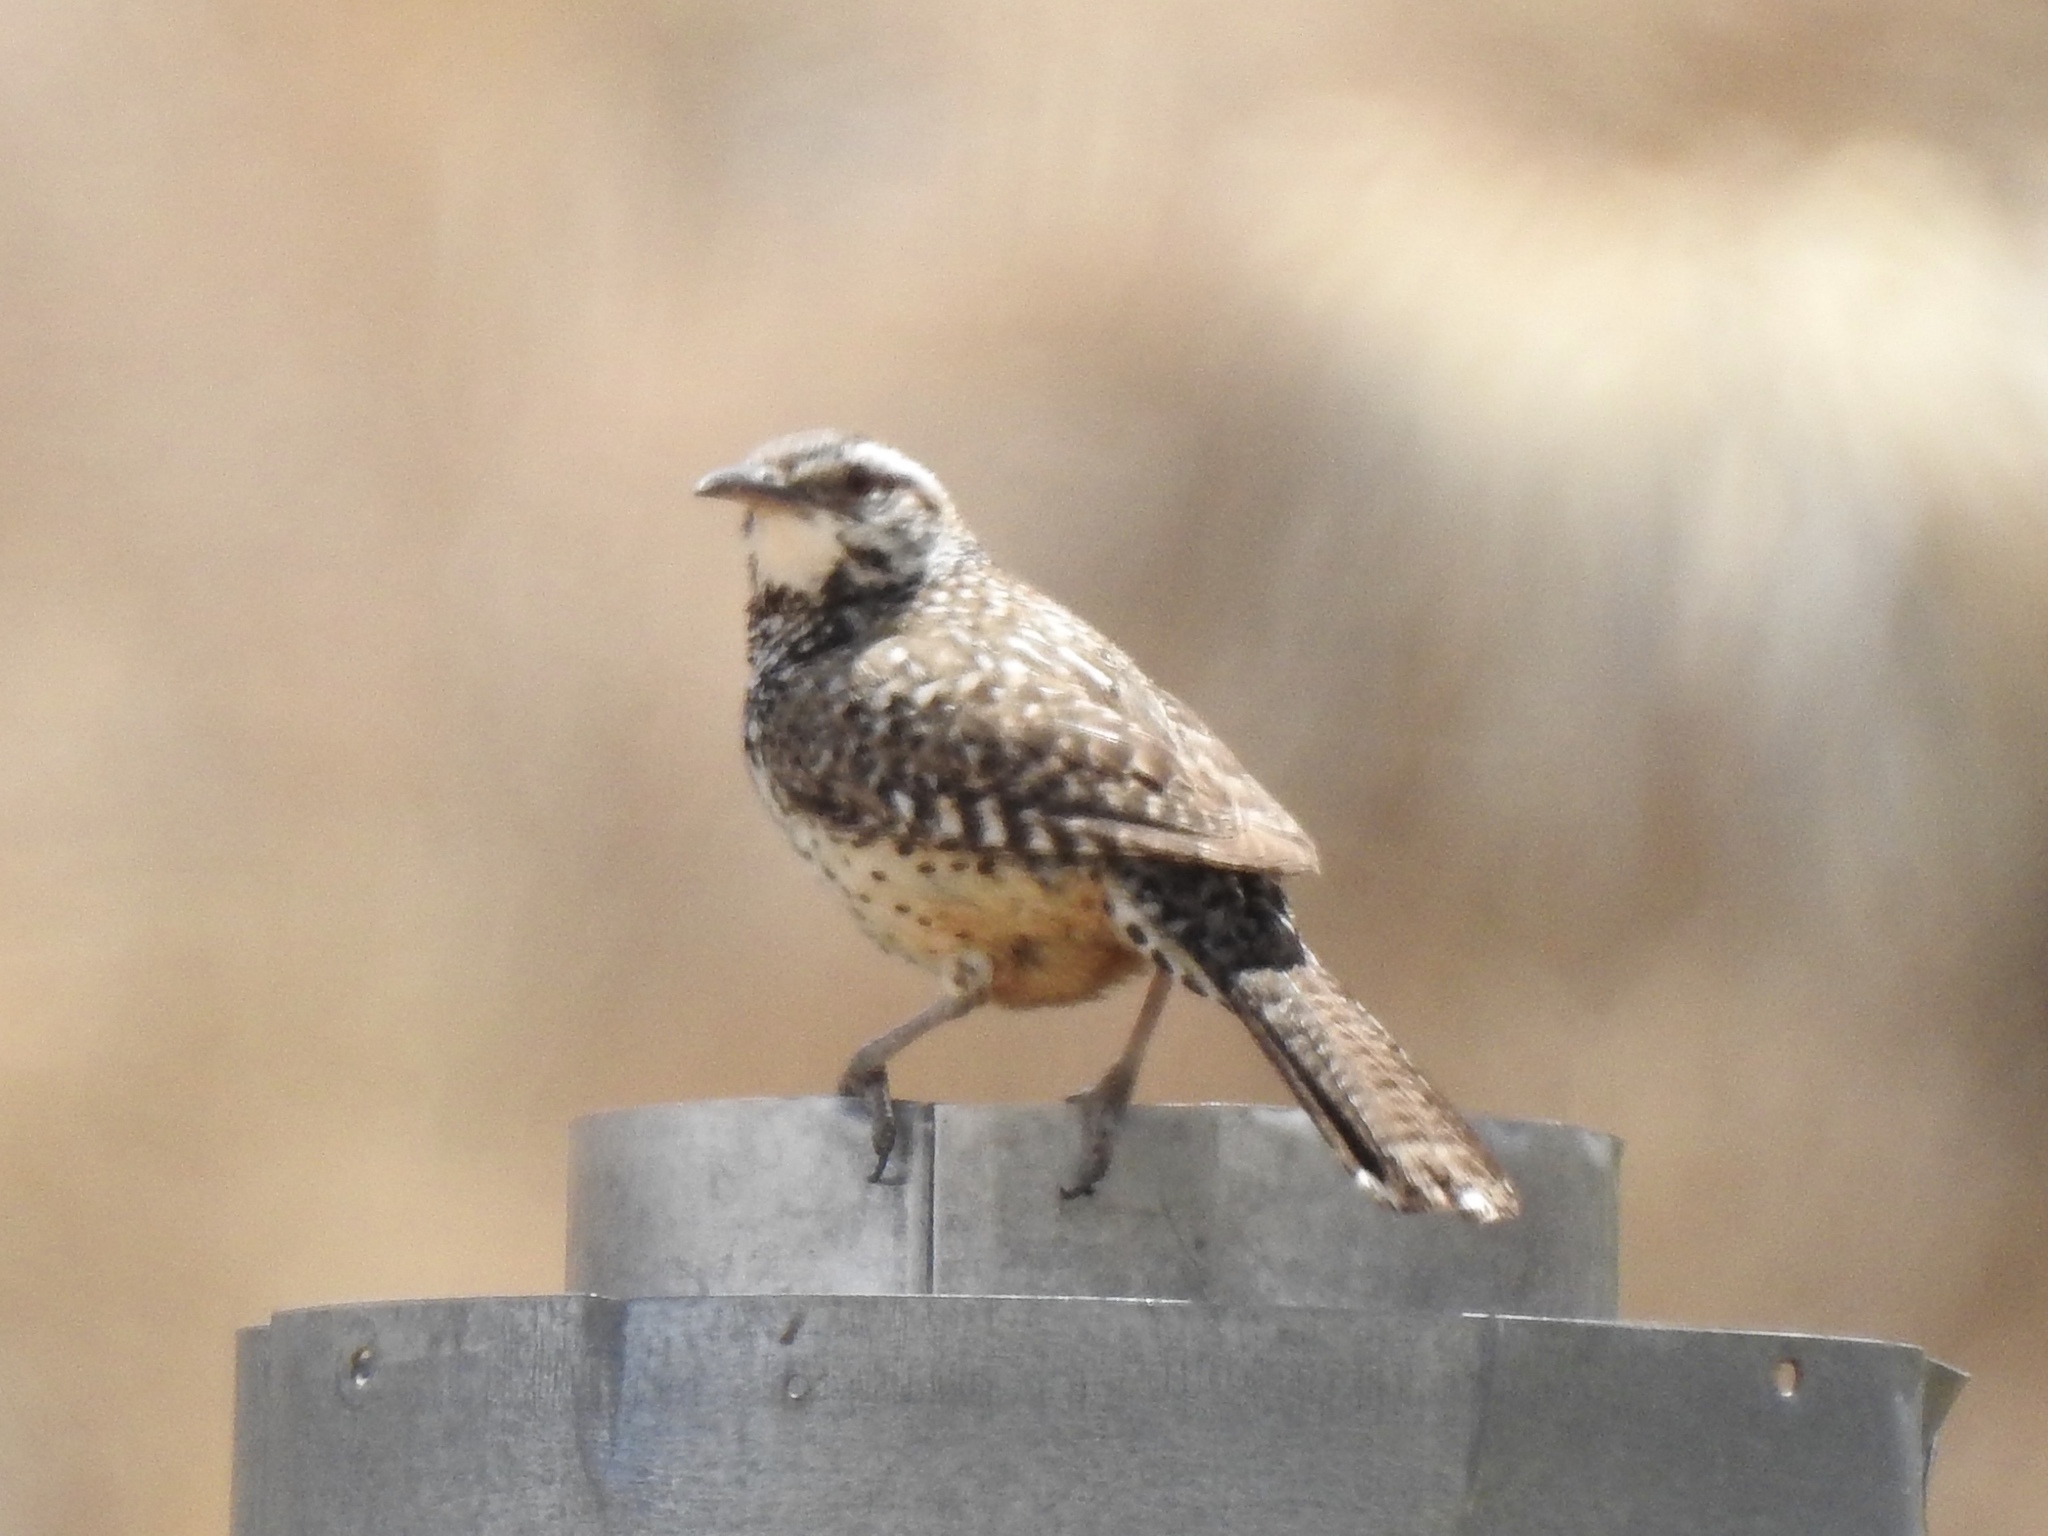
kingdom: Animalia
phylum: Chordata
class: Aves
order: Passeriformes
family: Troglodytidae
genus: Campylorhynchus
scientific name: Campylorhynchus brunneicapillus
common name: Cactus wren
